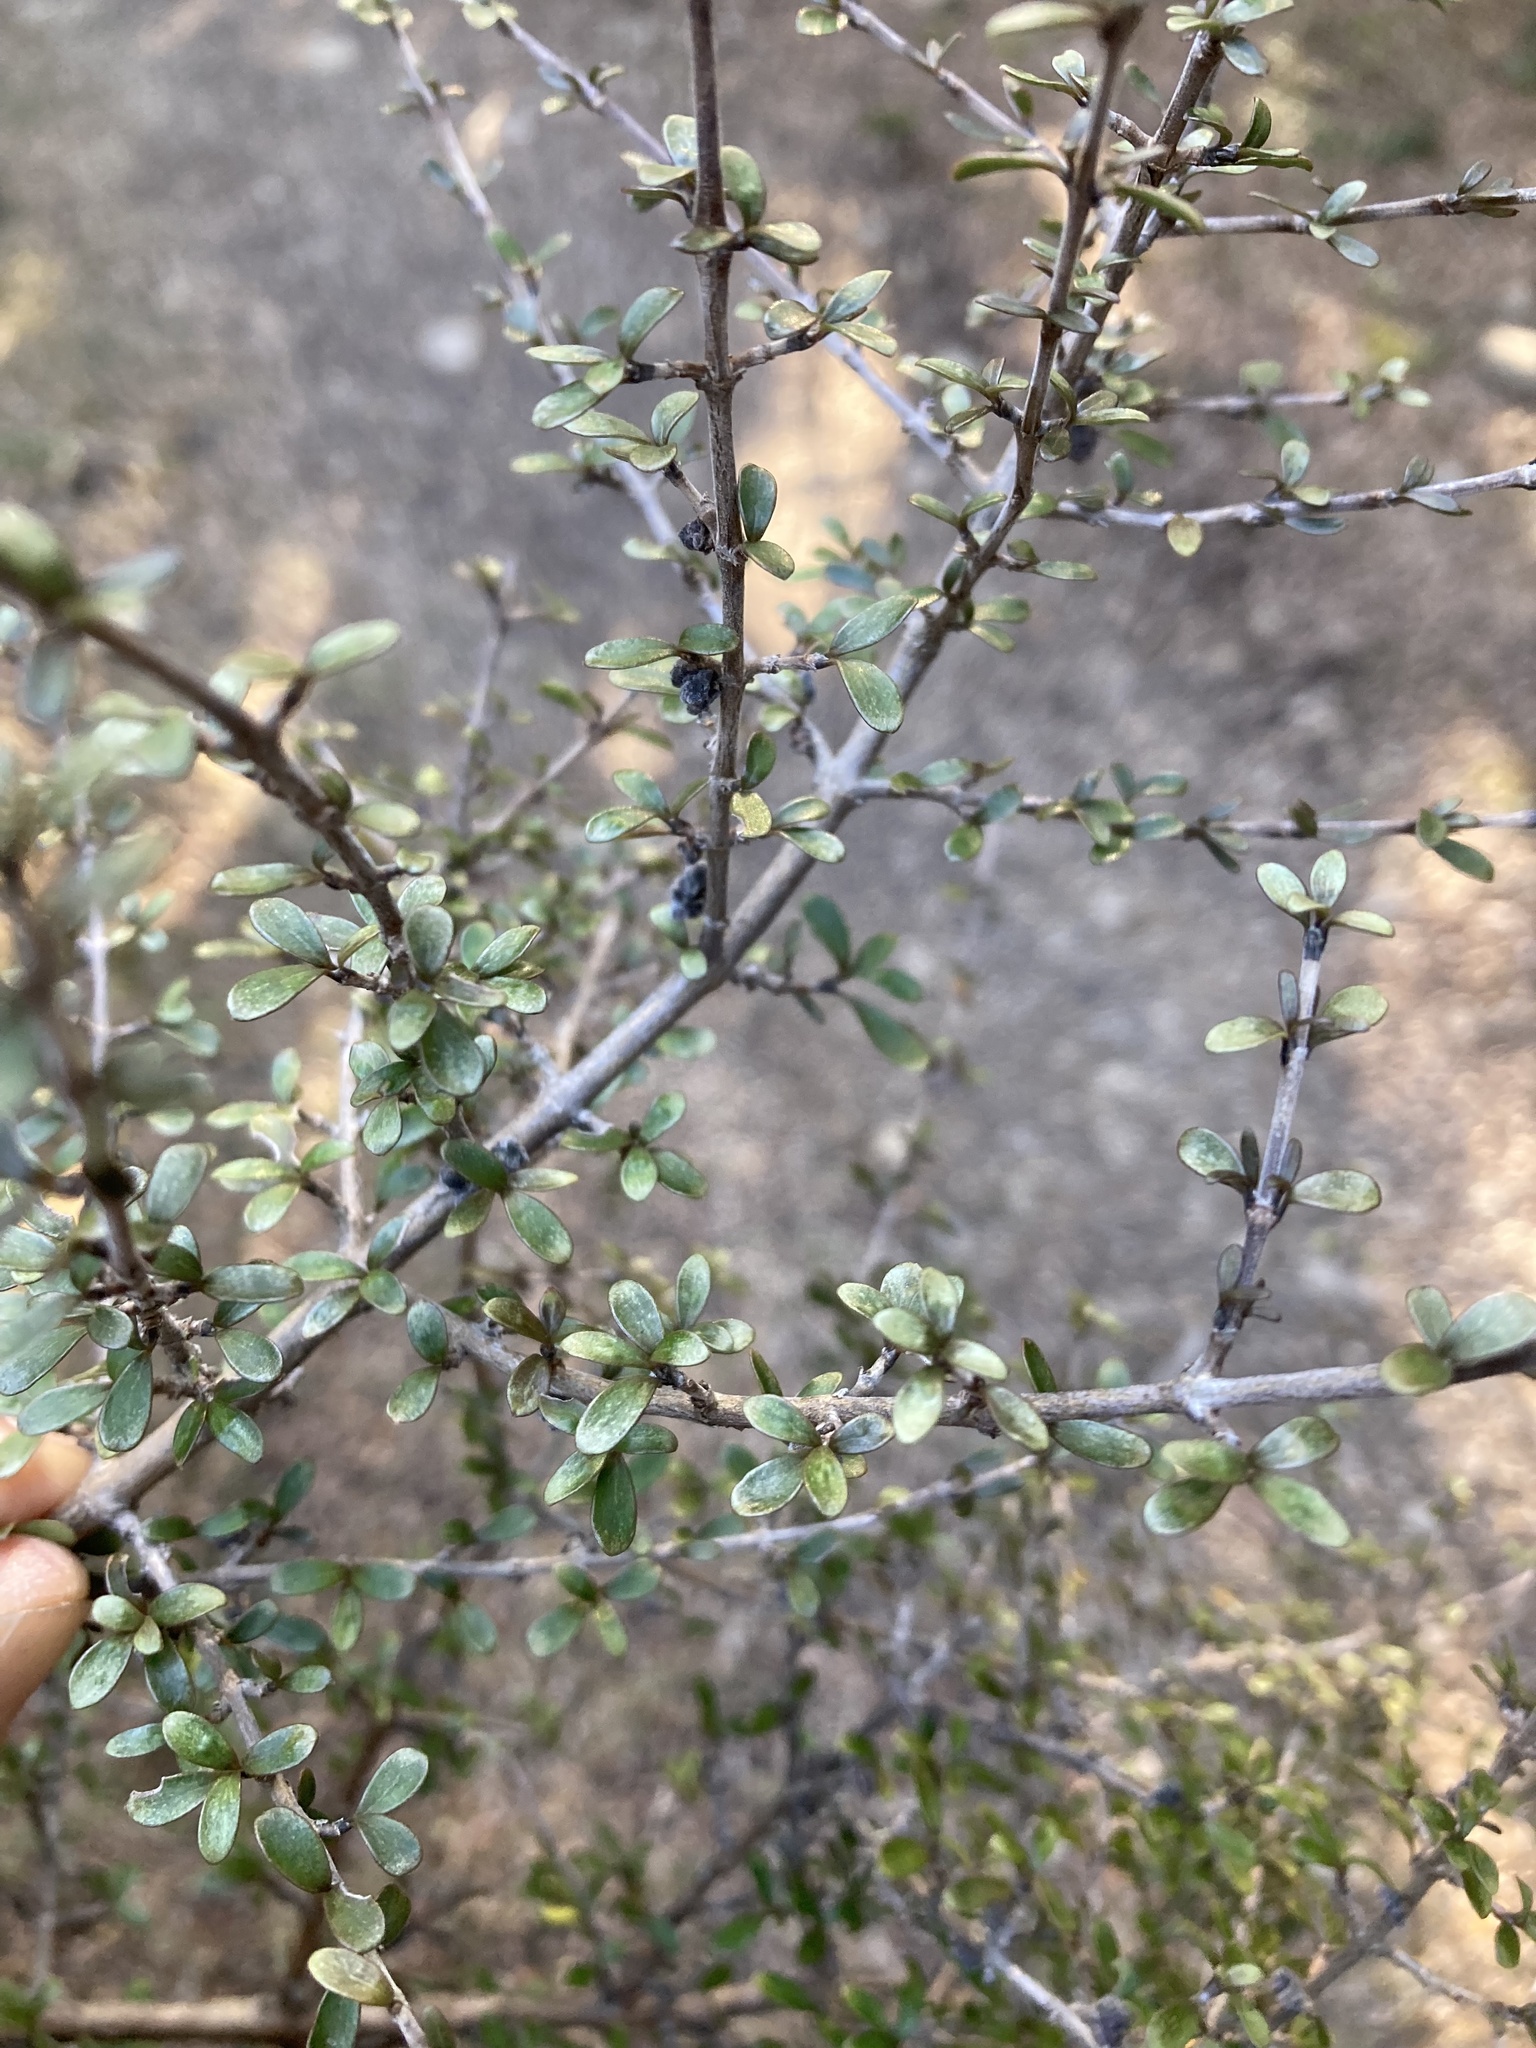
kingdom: Plantae
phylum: Tracheophyta
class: Magnoliopsida
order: Santalales
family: Viscaceae
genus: Korthalsella
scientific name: Korthalsella clavata
